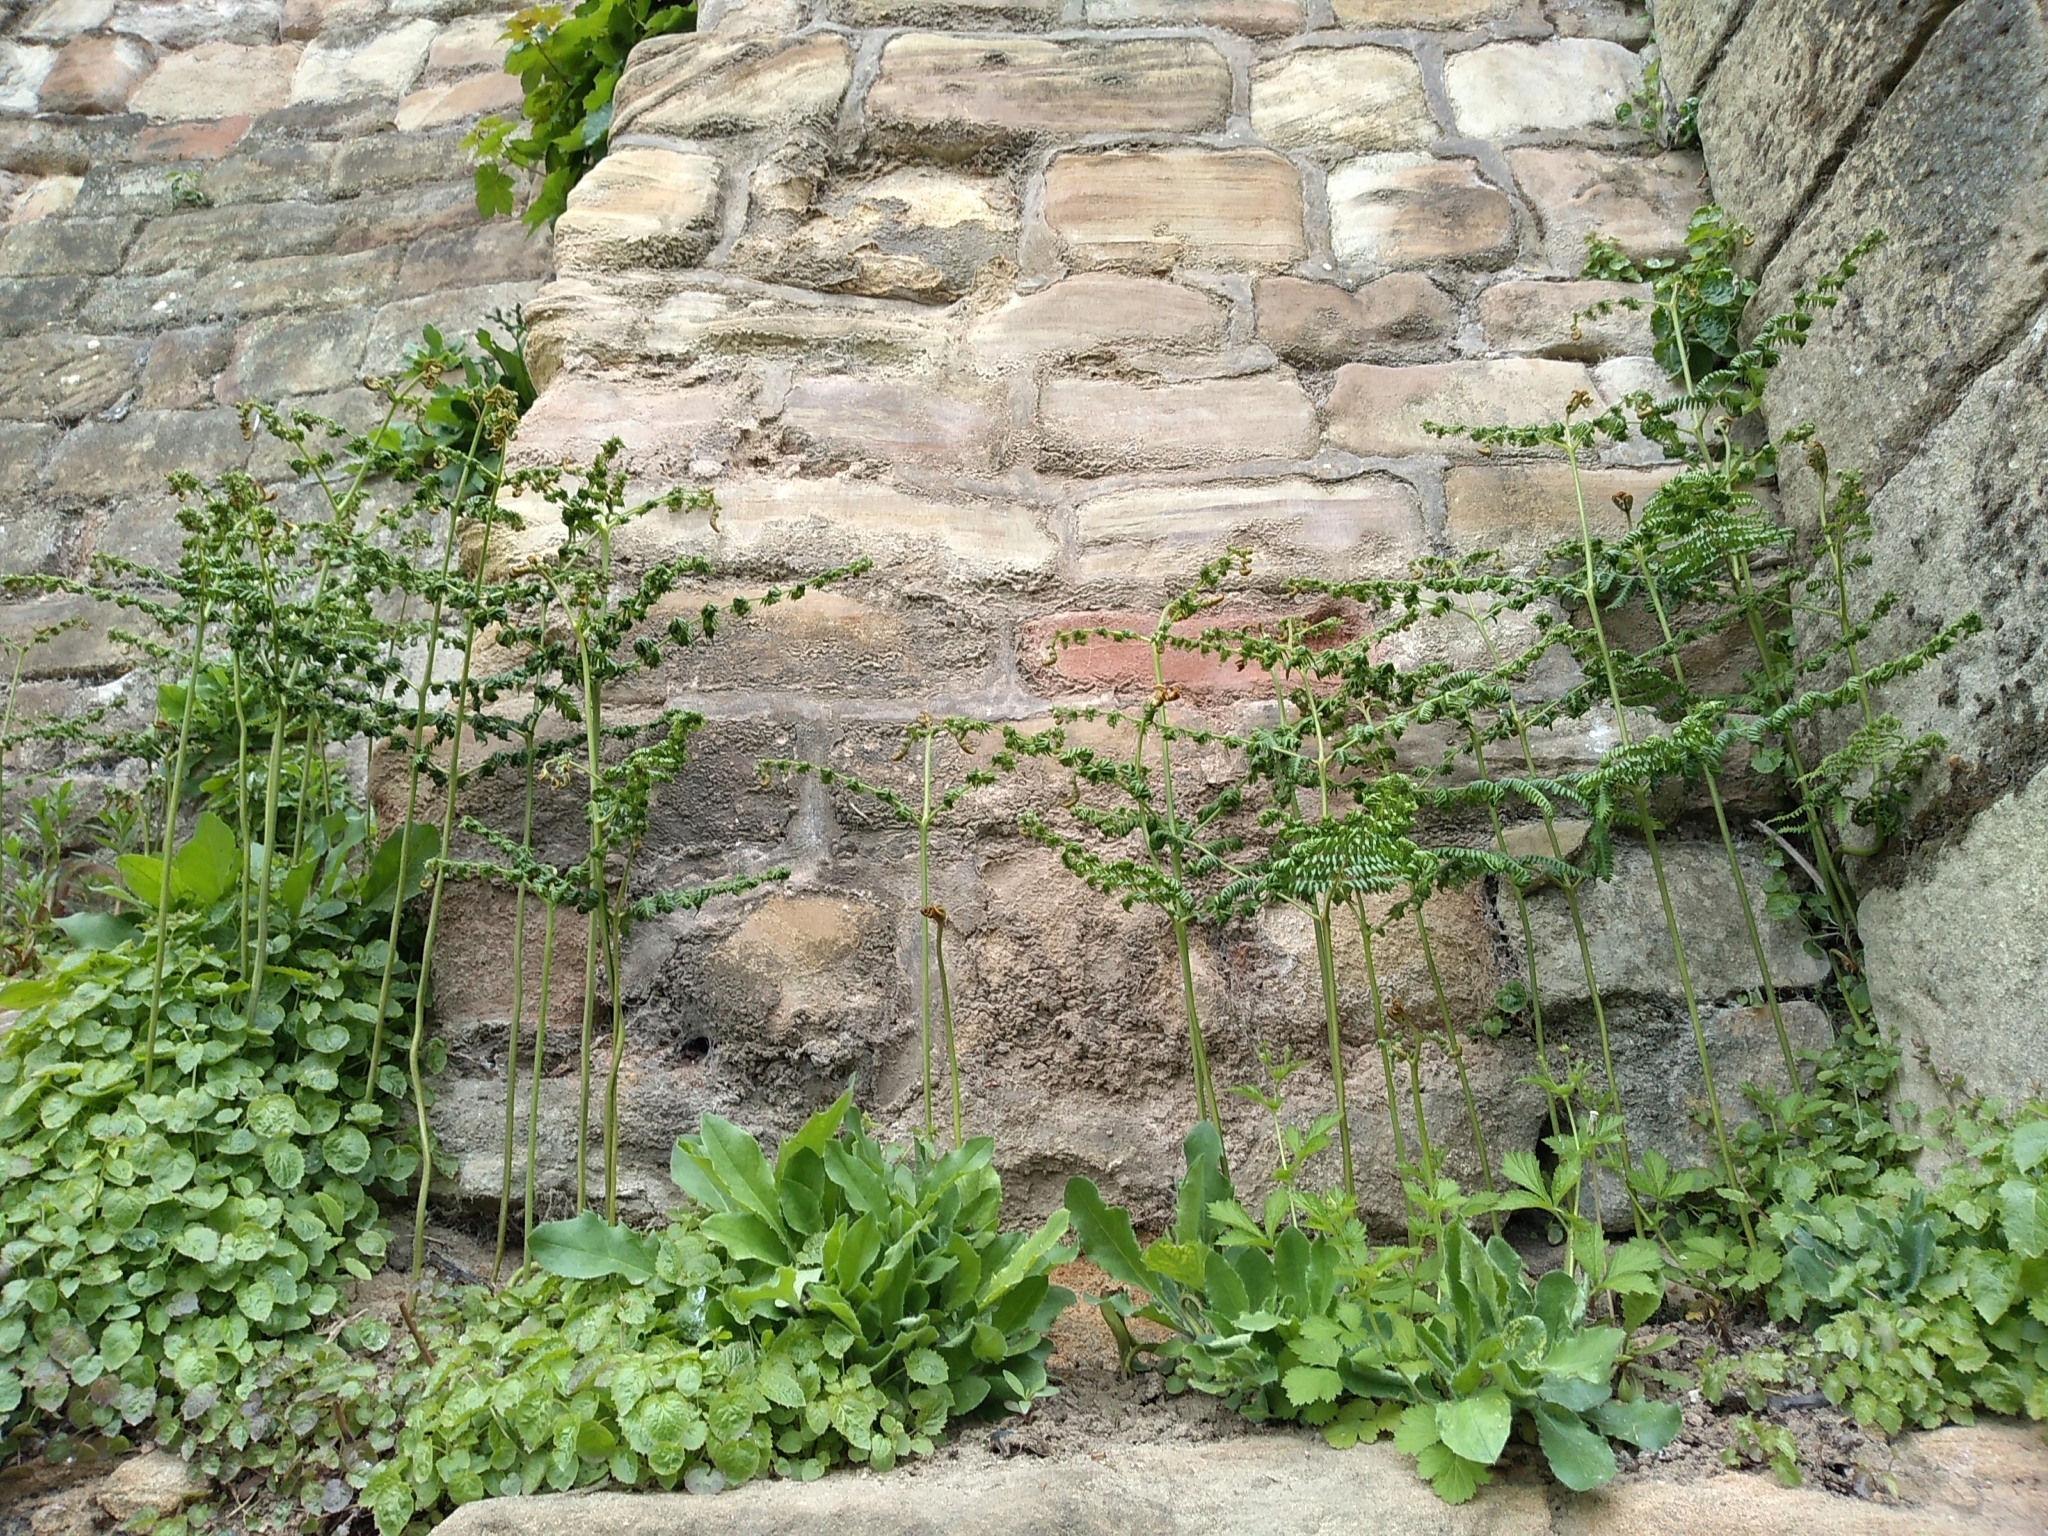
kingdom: Plantae
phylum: Tracheophyta
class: Polypodiopsida
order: Polypodiales
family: Dennstaedtiaceae
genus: Pteridium
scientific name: Pteridium aquilinum
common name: Bracken
